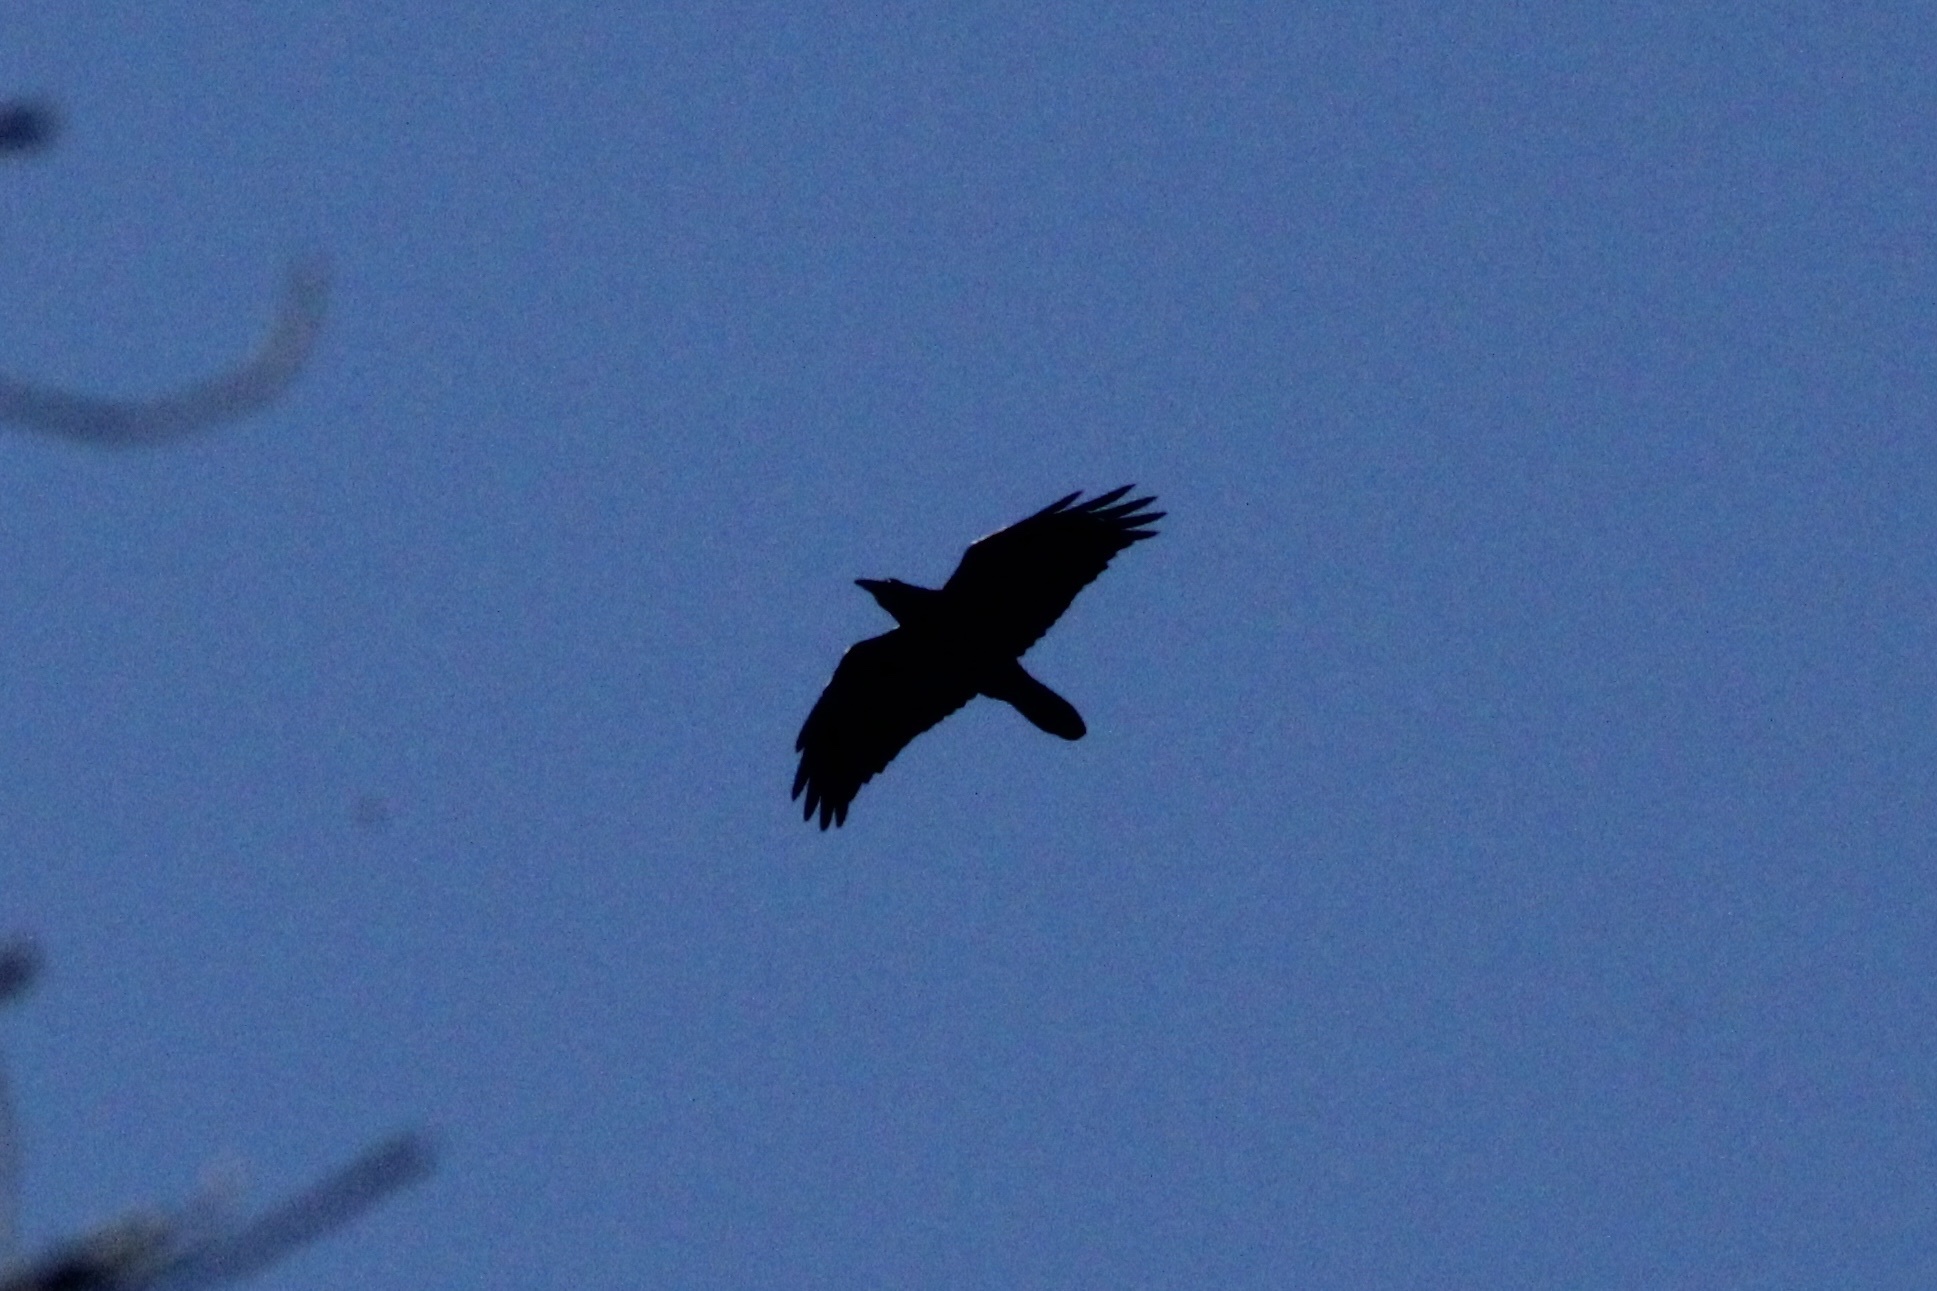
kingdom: Animalia
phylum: Chordata
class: Aves
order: Passeriformes
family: Corvidae
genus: Corvus
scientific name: Corvus corax
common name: Common raven
